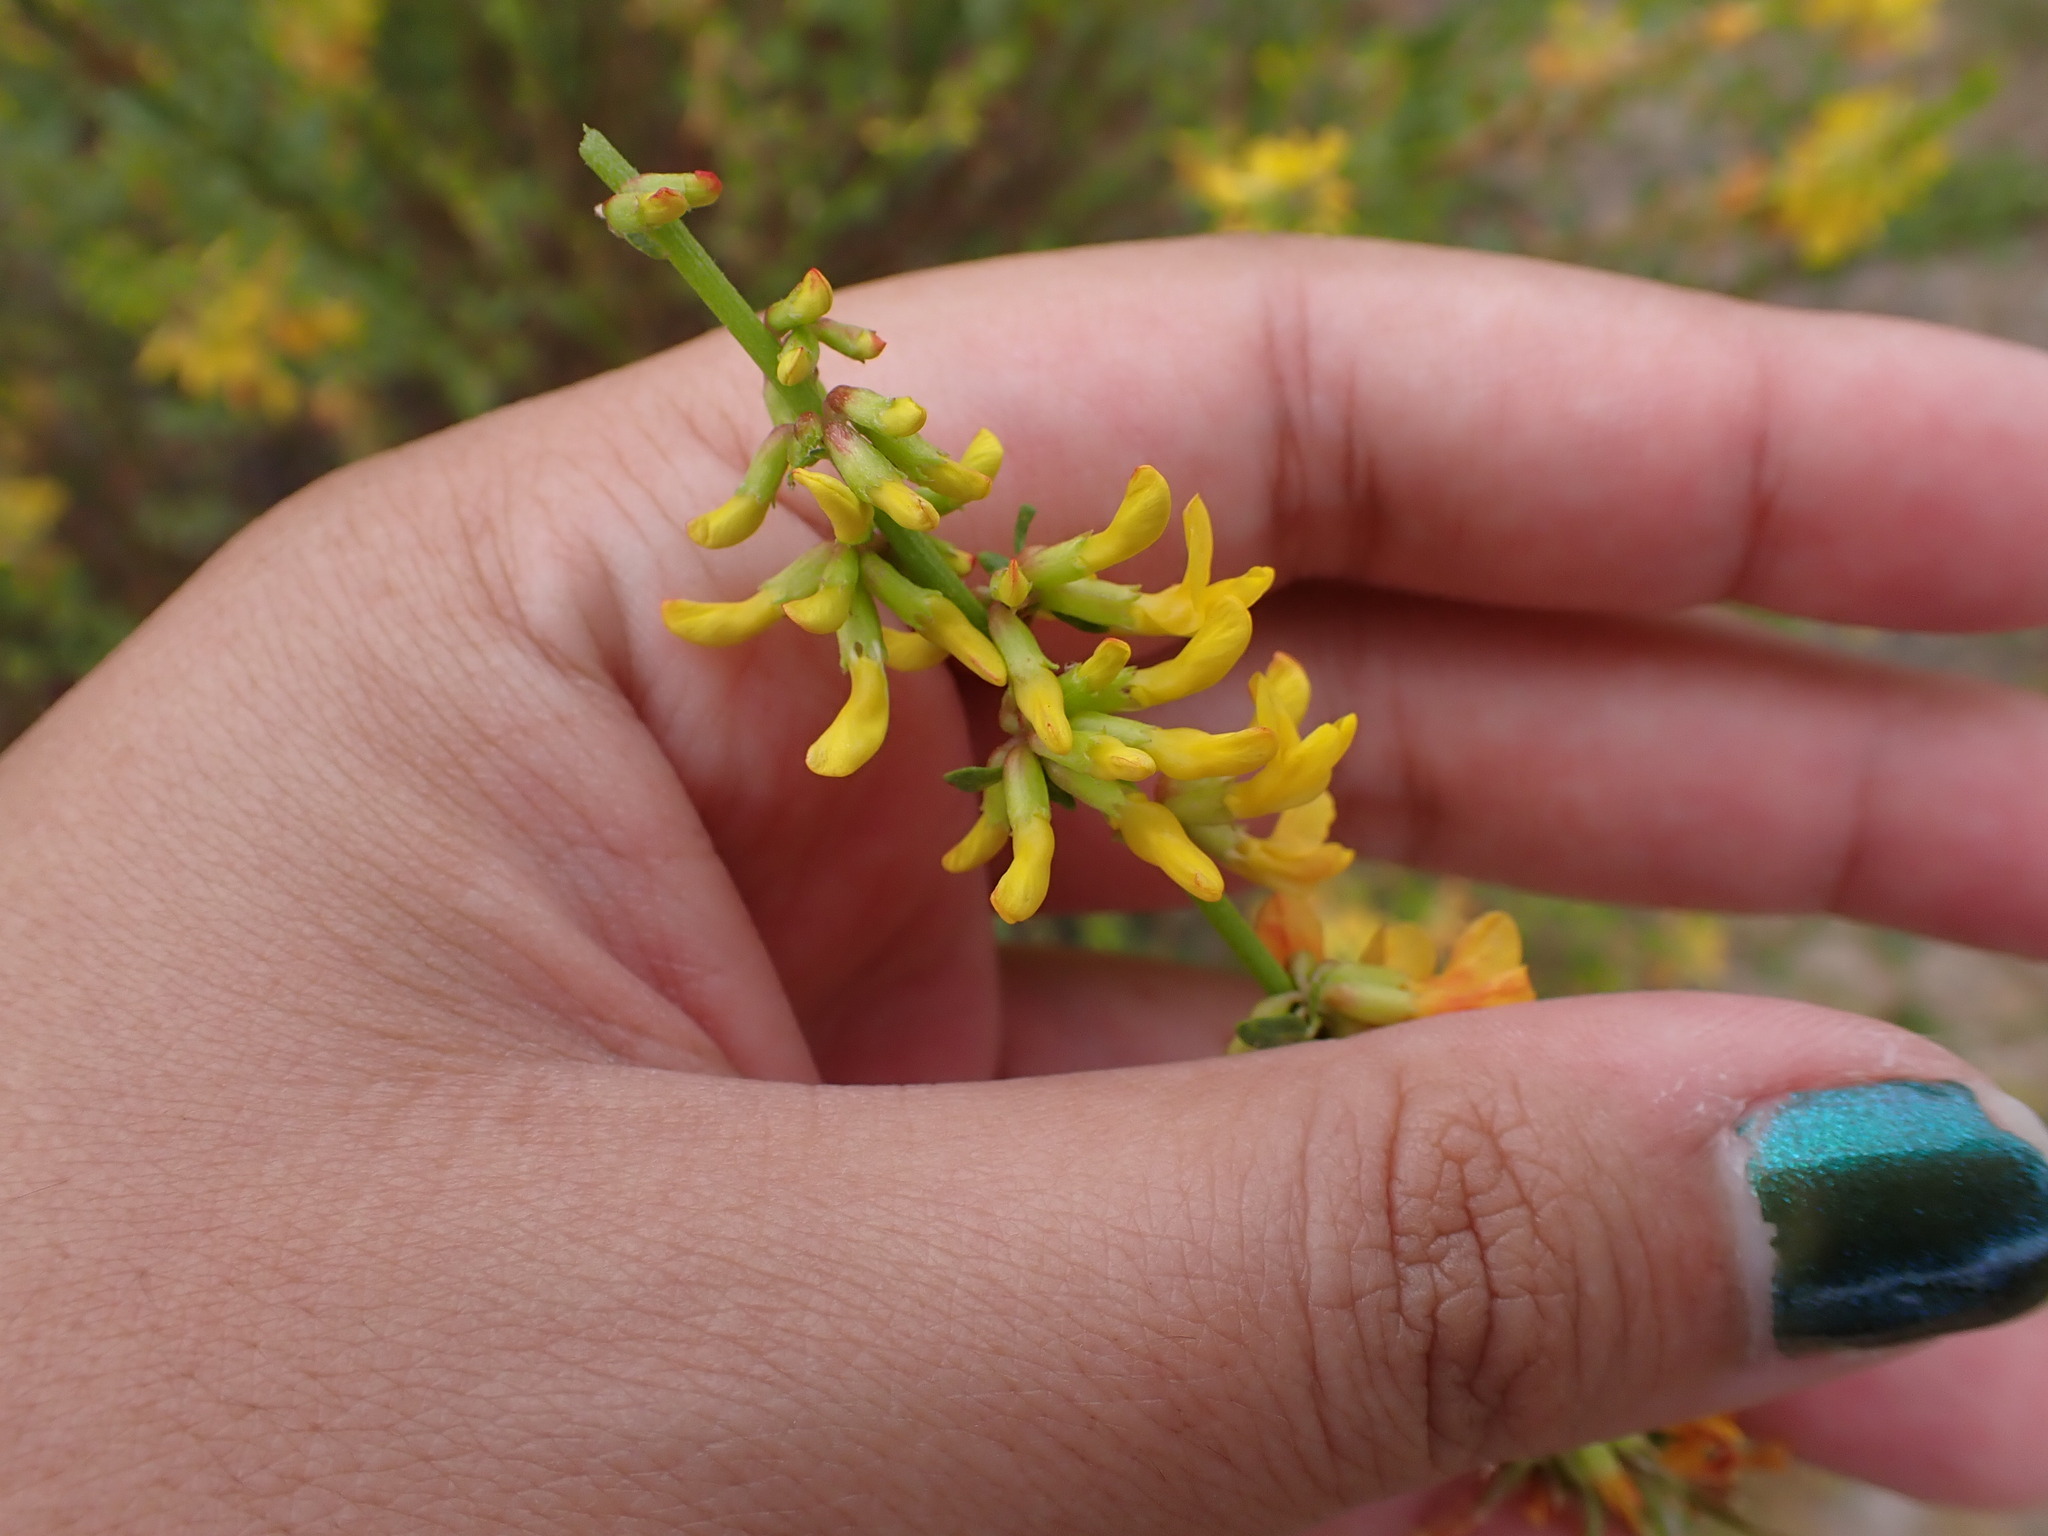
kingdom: Plantae
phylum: Tracheophyta
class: Magnoliopsida
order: Fabales
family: Fabaceae
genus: Acmispon
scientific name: Acmispon glaber
